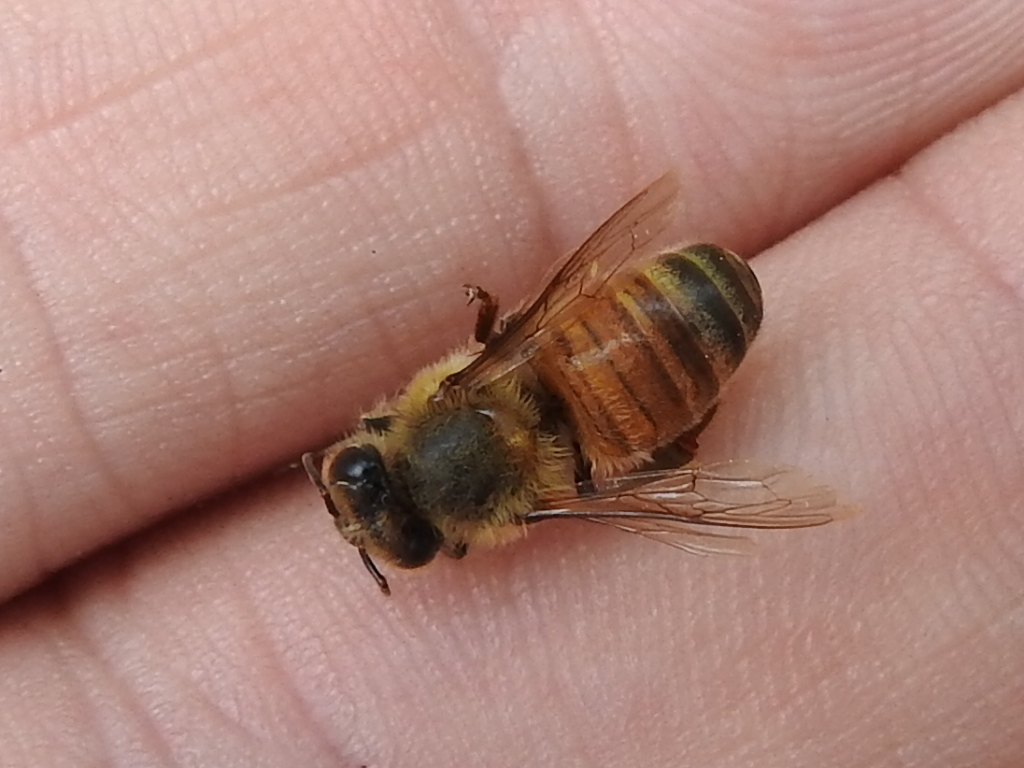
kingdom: Animalia
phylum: Arthropoda
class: Insecta
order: Hymenoptera
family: Apidae
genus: Apis
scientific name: Apis mellifera
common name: Honey bee
